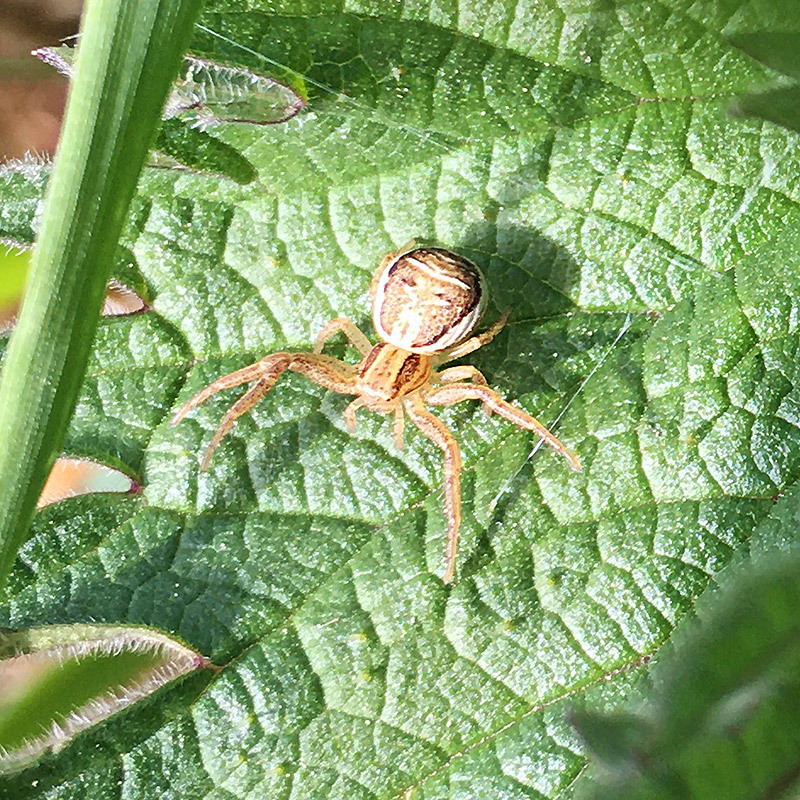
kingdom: Animalia
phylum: Arthropoda
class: Arachnida
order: Araneae
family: Thomisidae
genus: Xysticus
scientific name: Xysticus ulmi
